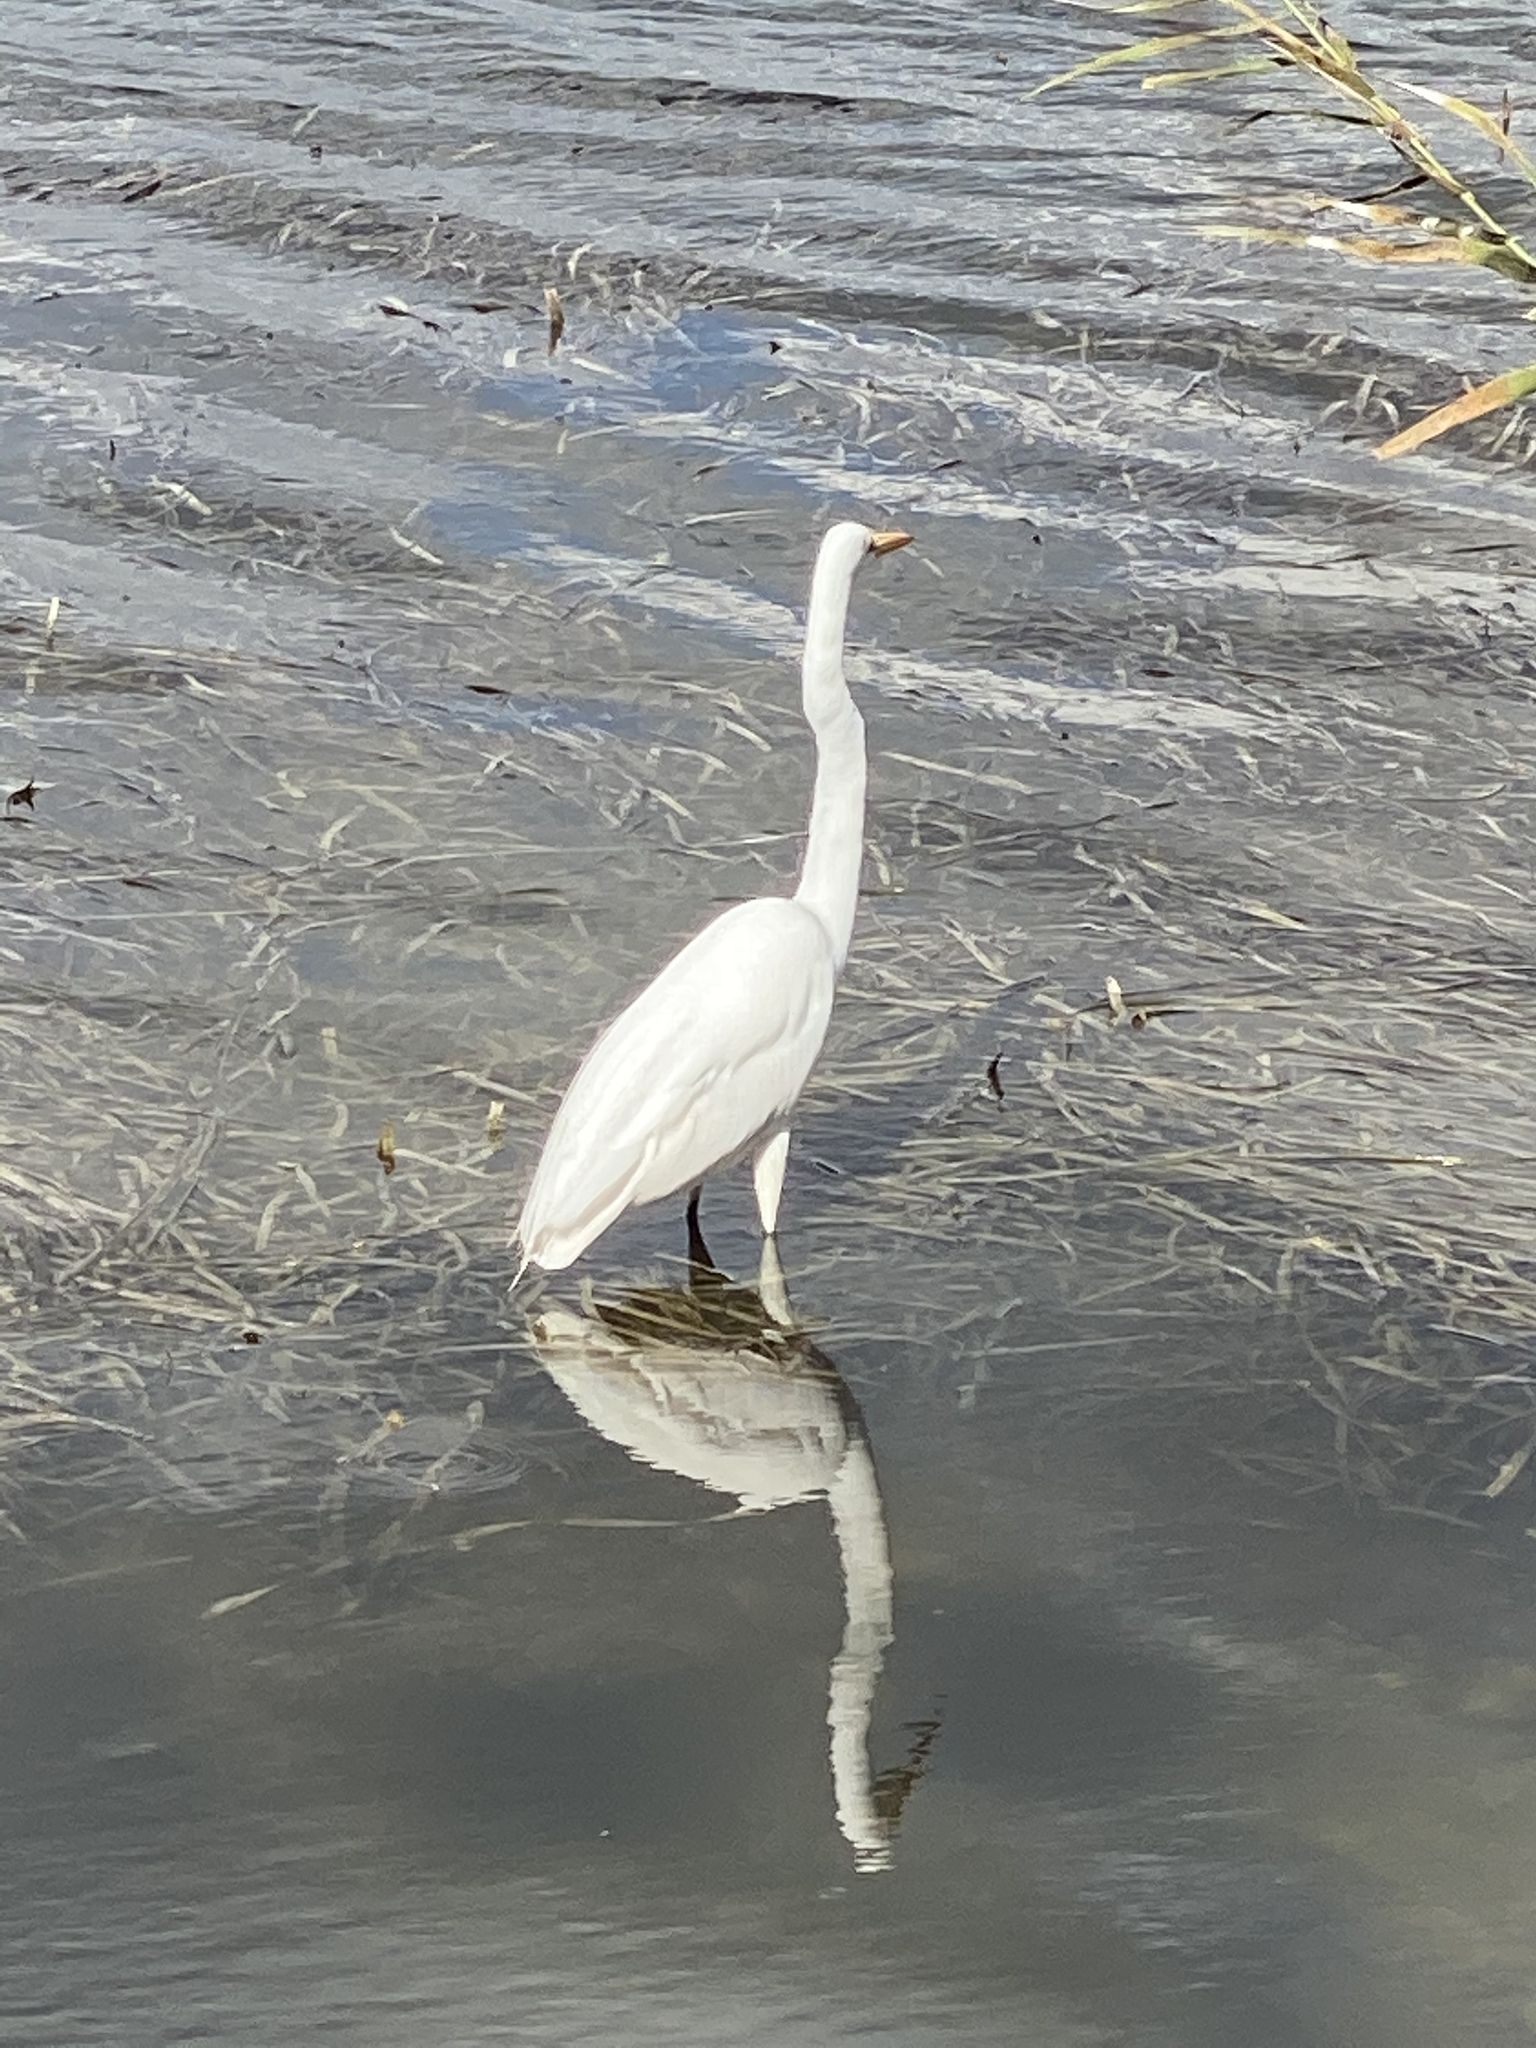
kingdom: Animalia
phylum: Chordata
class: Aves
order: Pelecaniformes
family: Ardeidae
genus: Ardea
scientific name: Ardea alba
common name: Great egret
